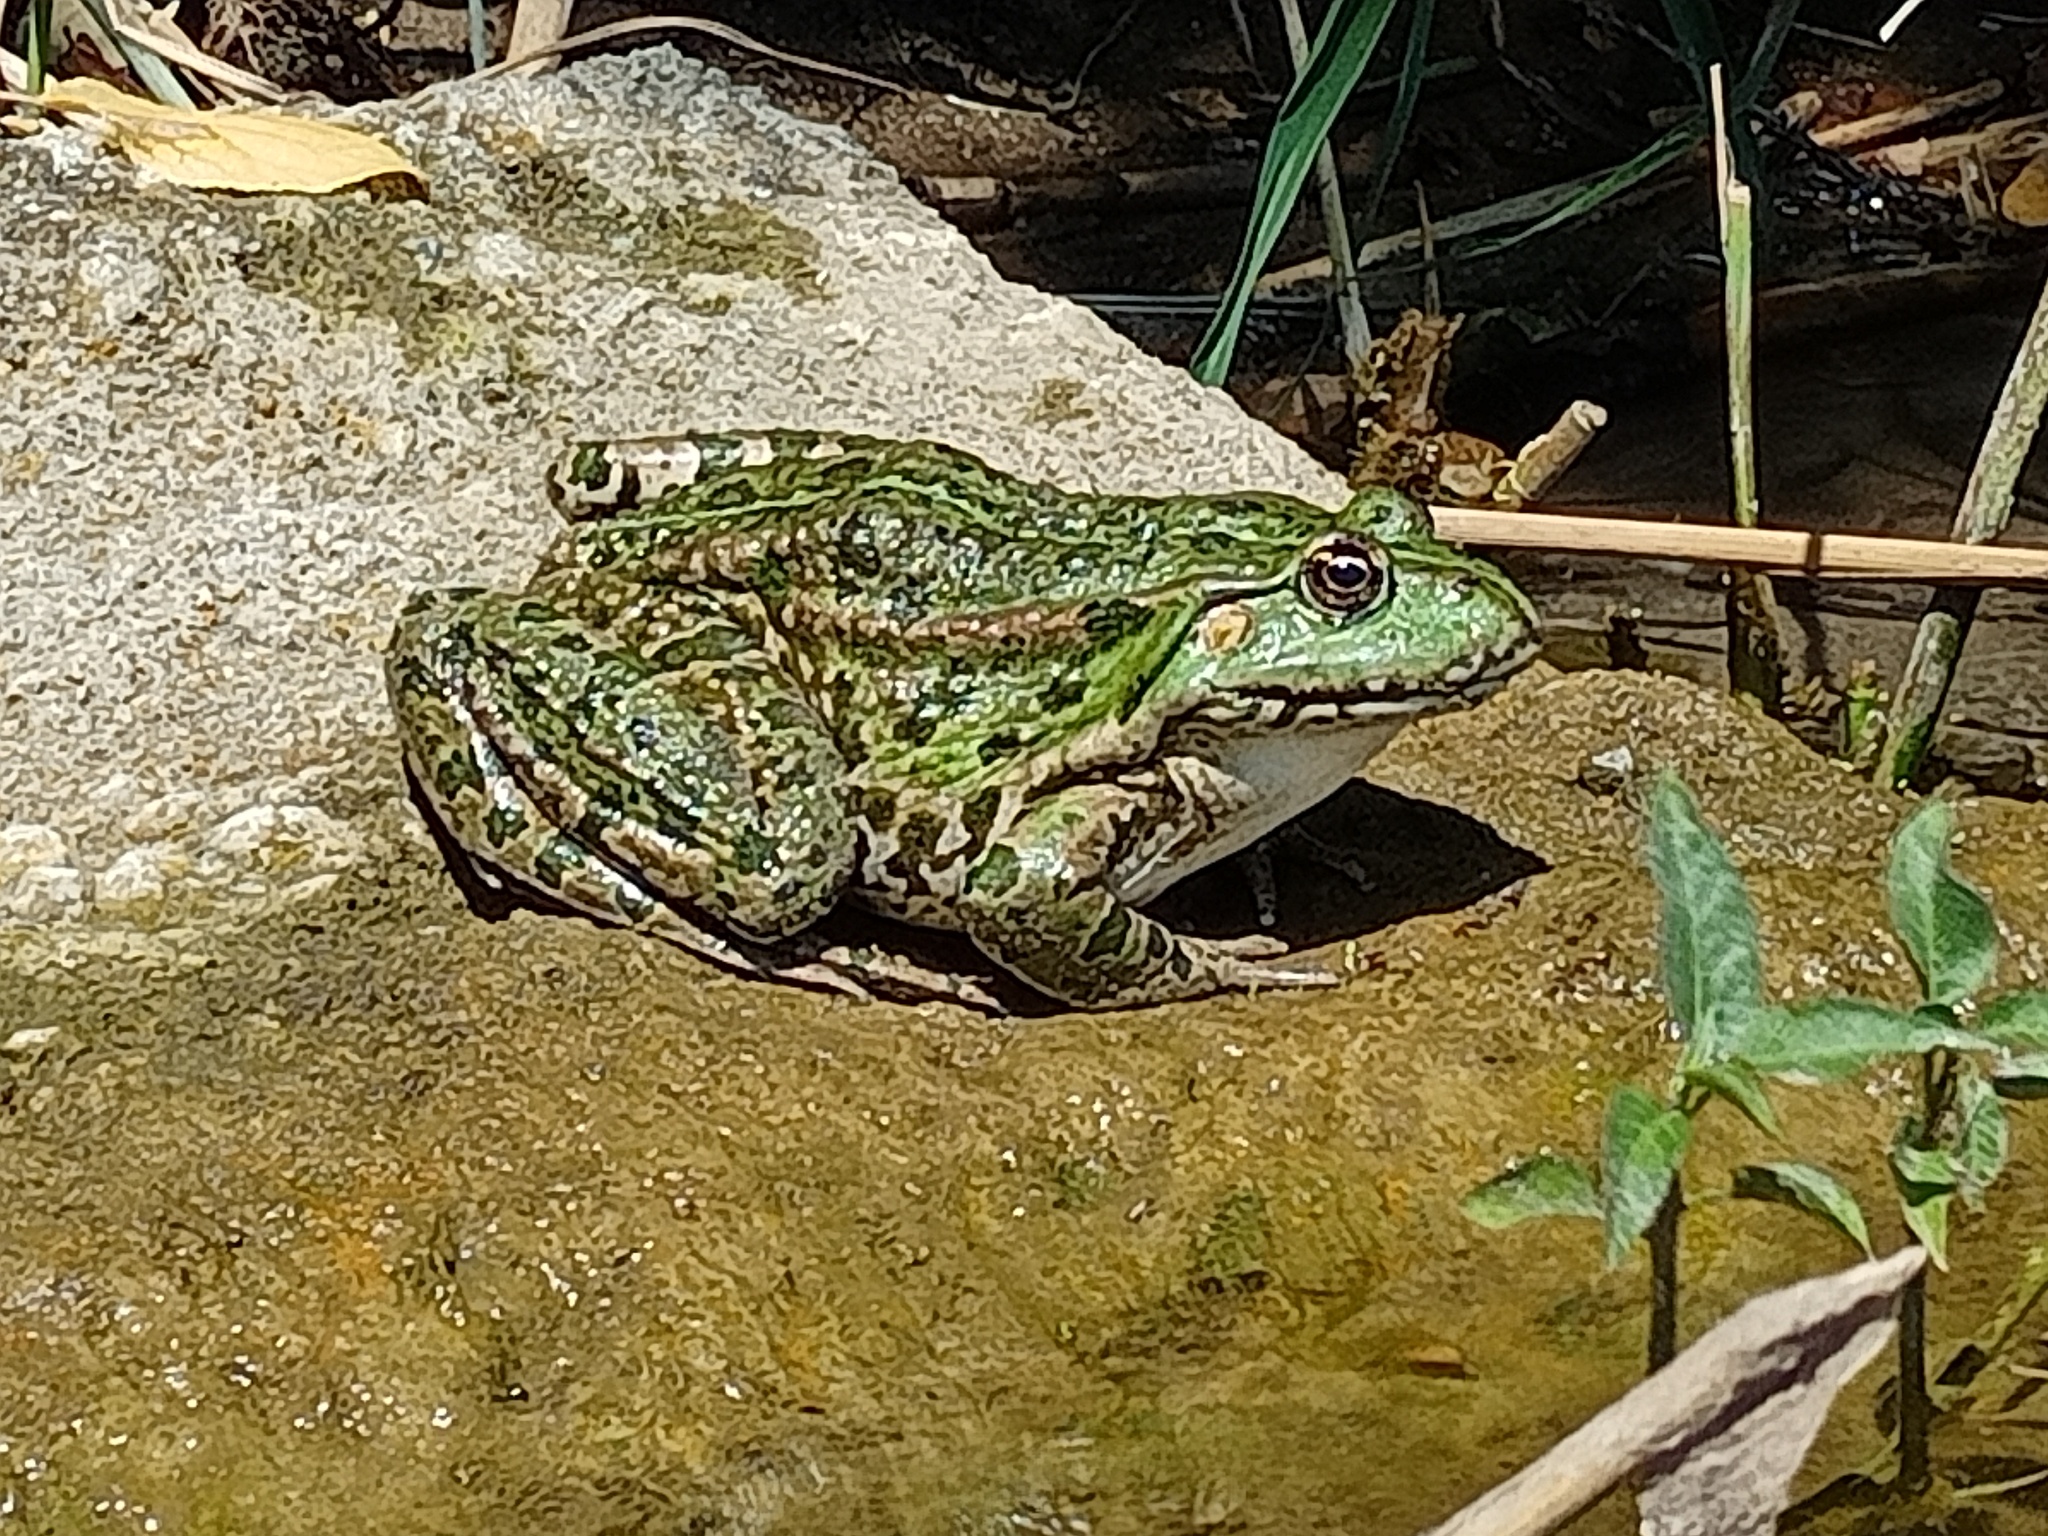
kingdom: Animalia
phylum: Chordata
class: Amphibia
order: Anura
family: Ranidae
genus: Pelophylax
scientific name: Pelophylax ridibundus
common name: Marsh frog
